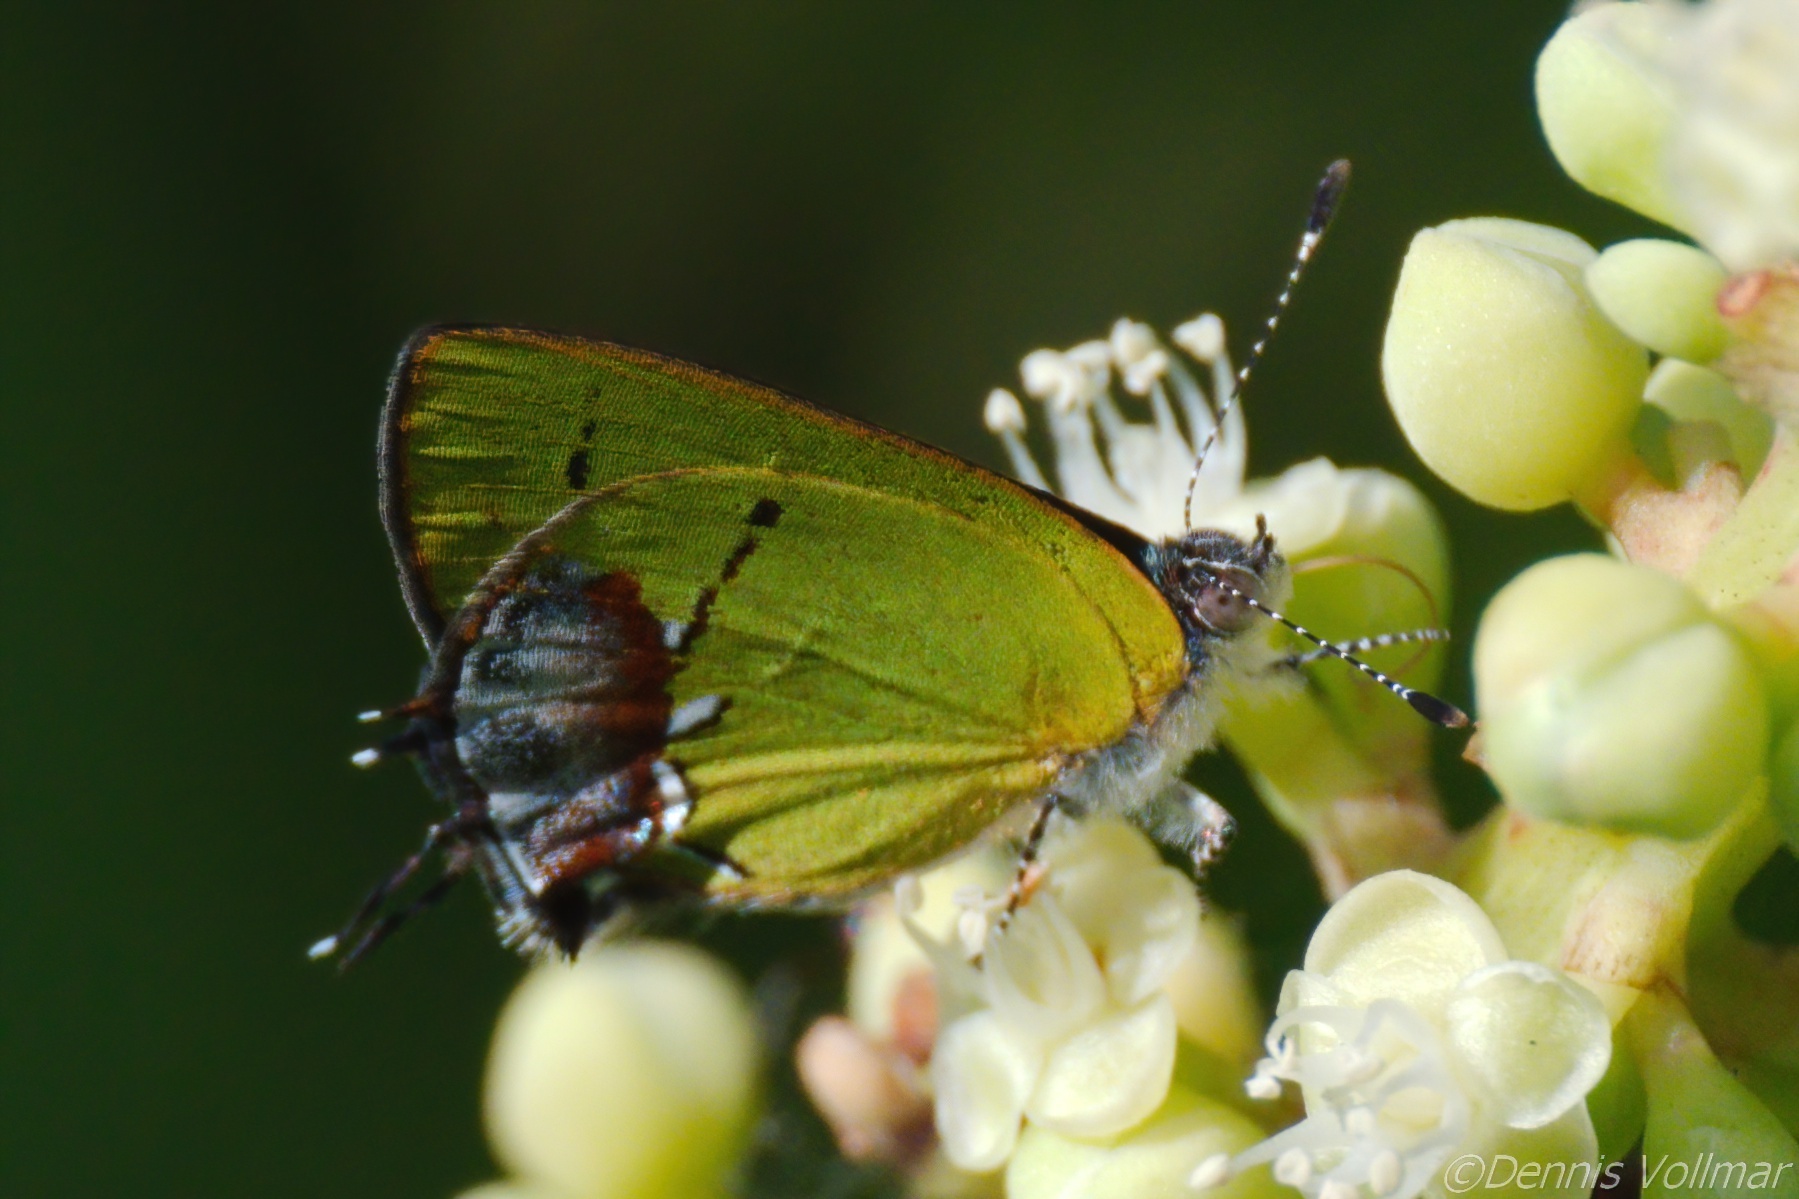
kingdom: Animalia
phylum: Arthropoda
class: Insecta
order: Lepidoptera
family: Lycaenidae
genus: Thecla
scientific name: Thecla maesites
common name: Verde azul hairstreak
